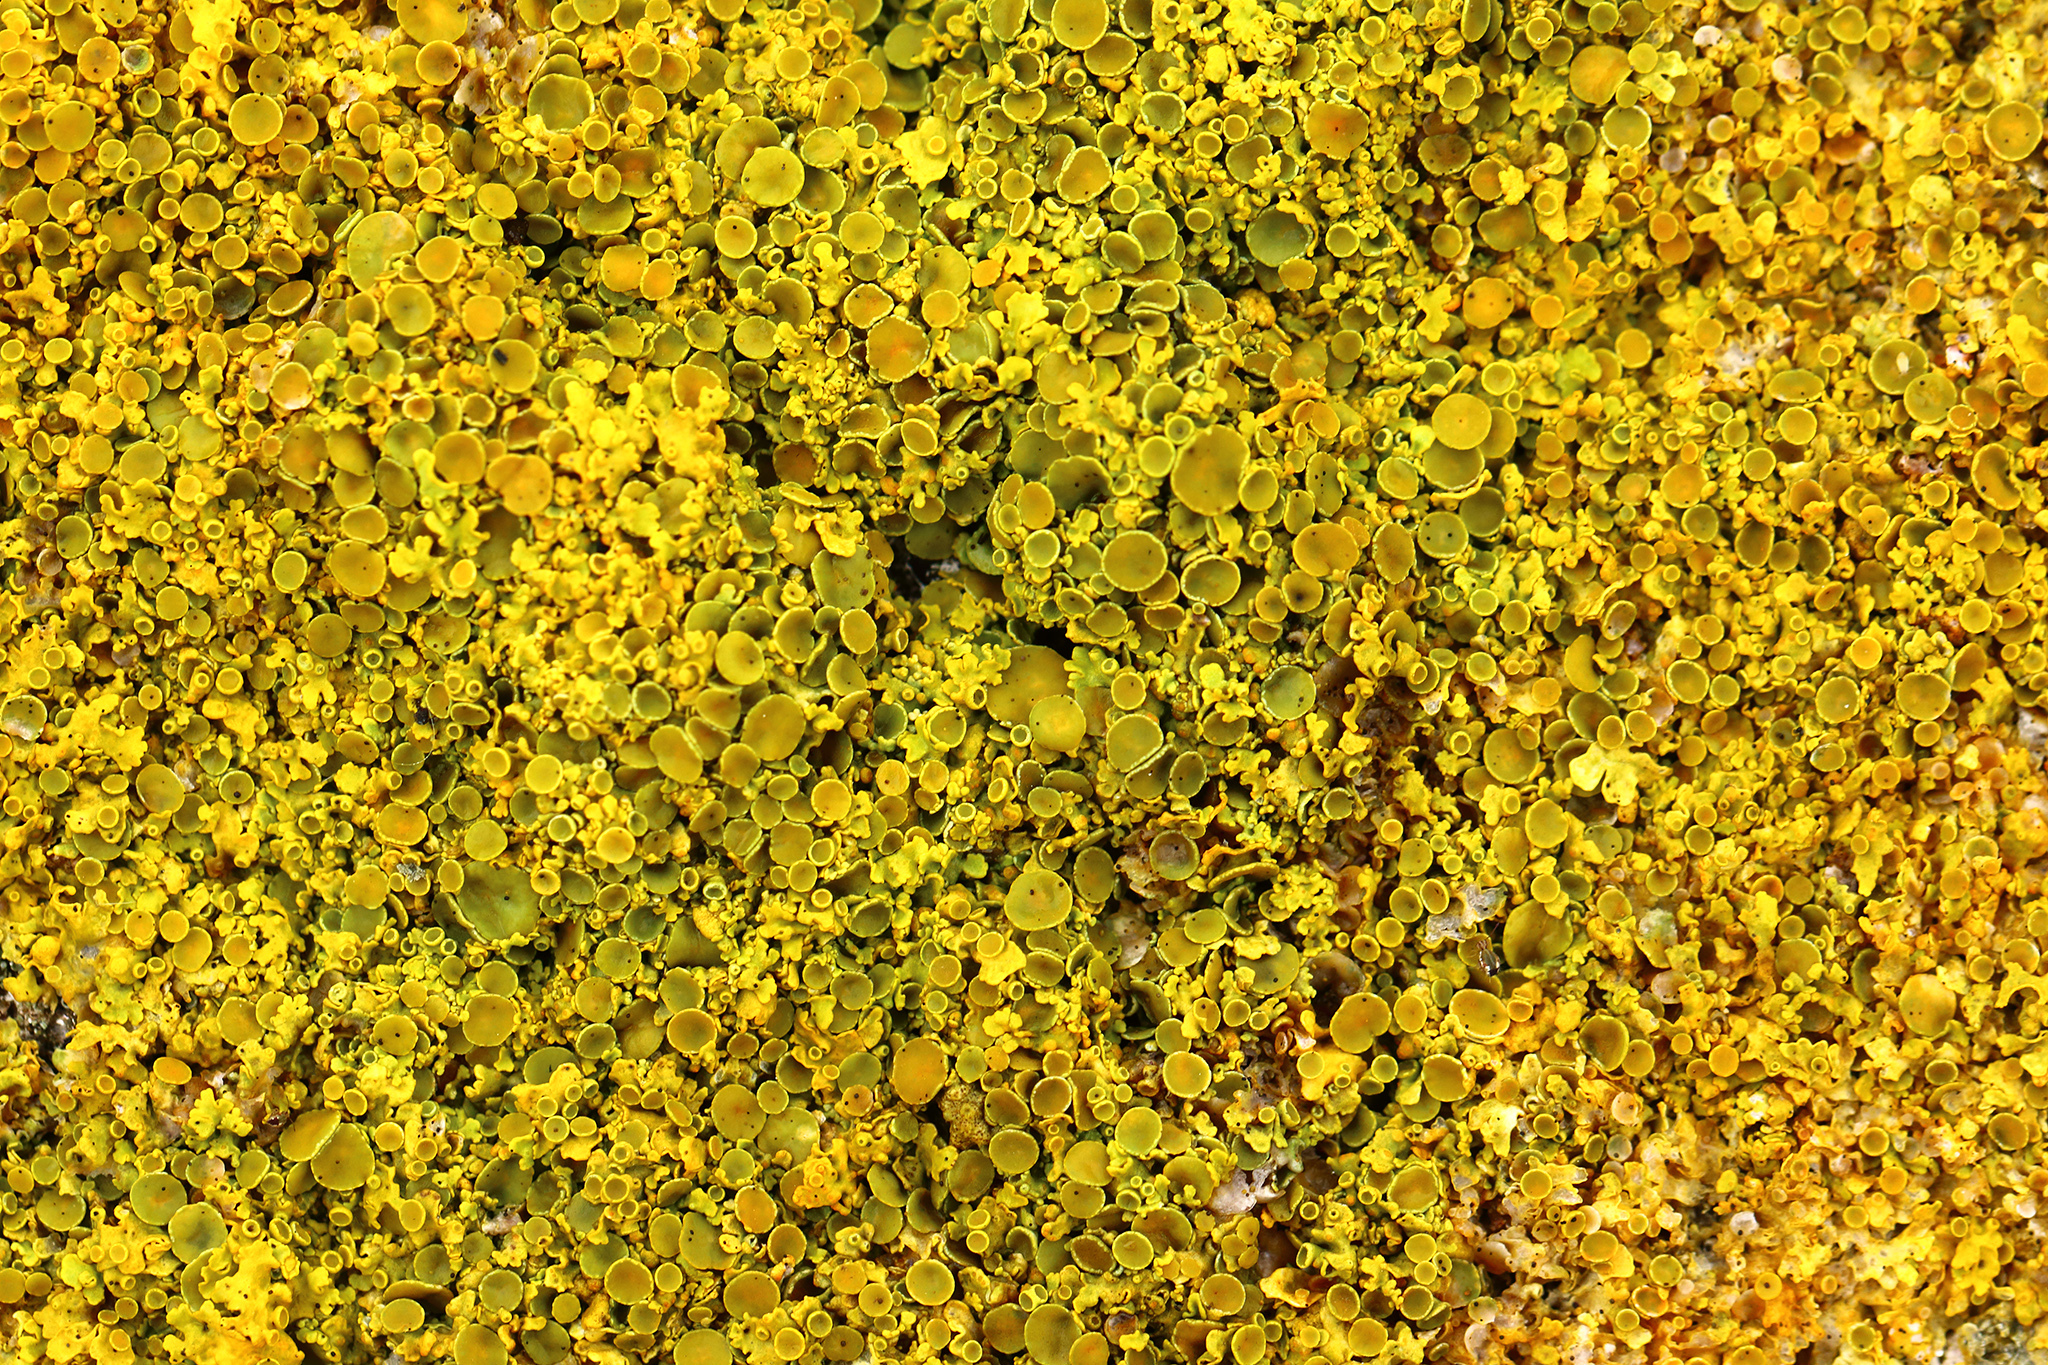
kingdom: Fungi
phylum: Ascomycota
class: Lecanoromycetes
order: Teloschistales
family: Teloschistaceae
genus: Xanthoria
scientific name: Xanthoria parietina
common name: Common orange lichen
